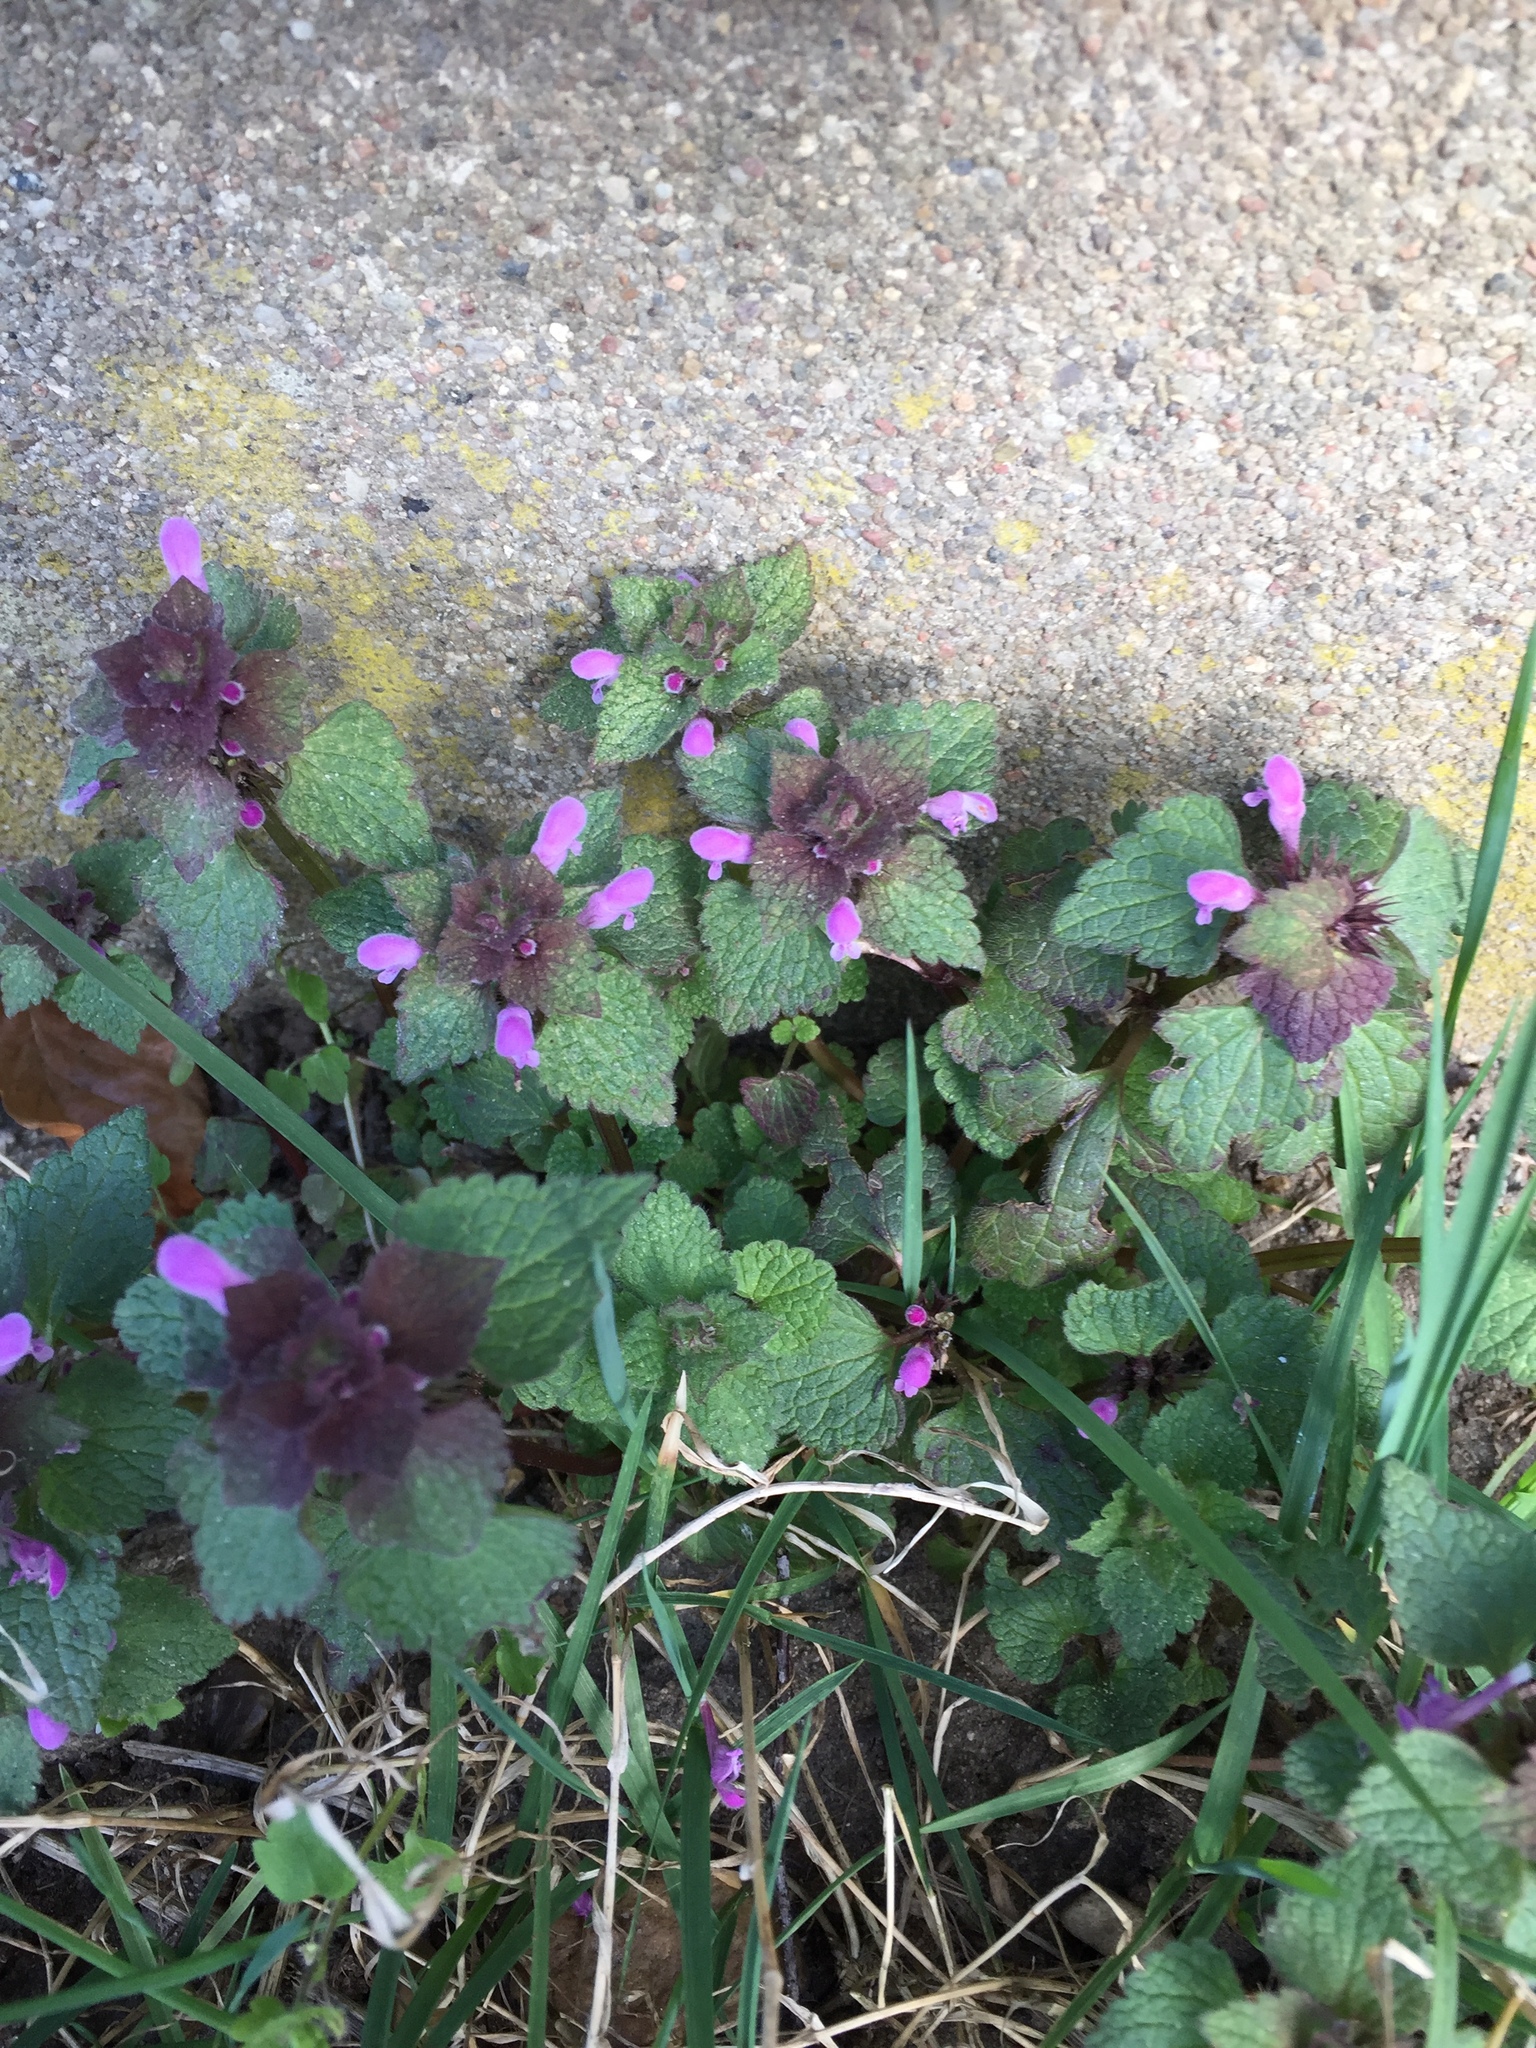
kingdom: Plantae
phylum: Tracheophyta
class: Magnoliopsida
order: Lamiales
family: Lamiaceae
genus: Lamium
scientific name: Lamium purpureum
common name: Red dead-nettle
